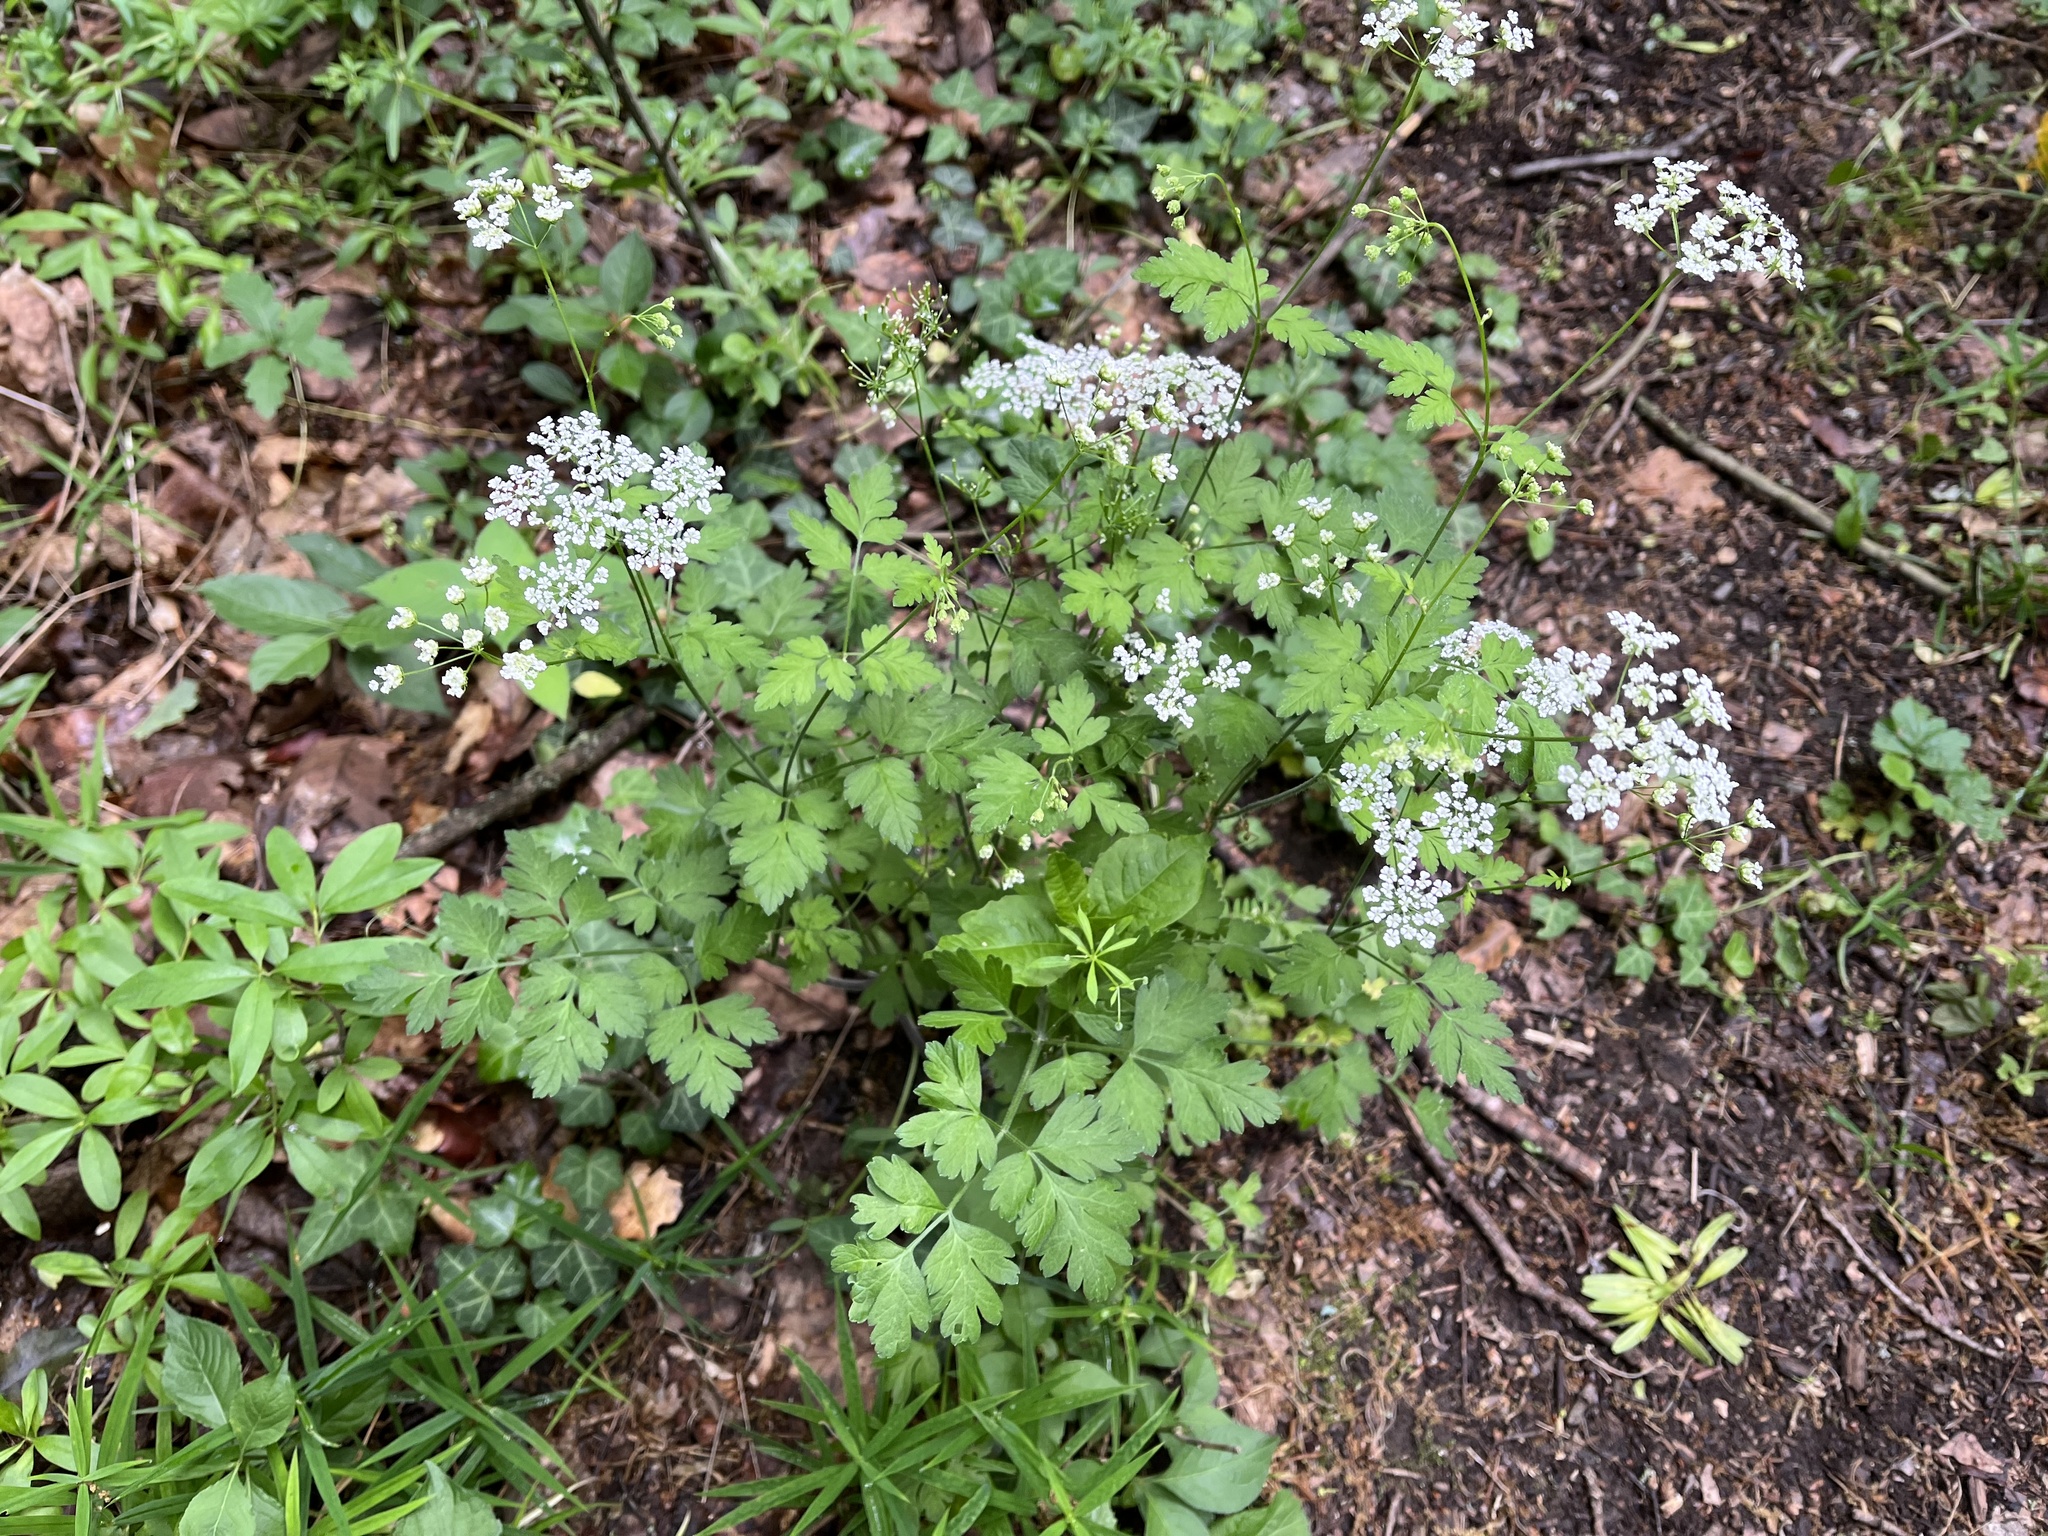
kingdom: Plantae
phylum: Tracheophyta
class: Magnoliopsida
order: Apiales
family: Apiaceae
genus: Chaerophyllum
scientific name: Chaerophyllum temulum
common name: Rough chervil
